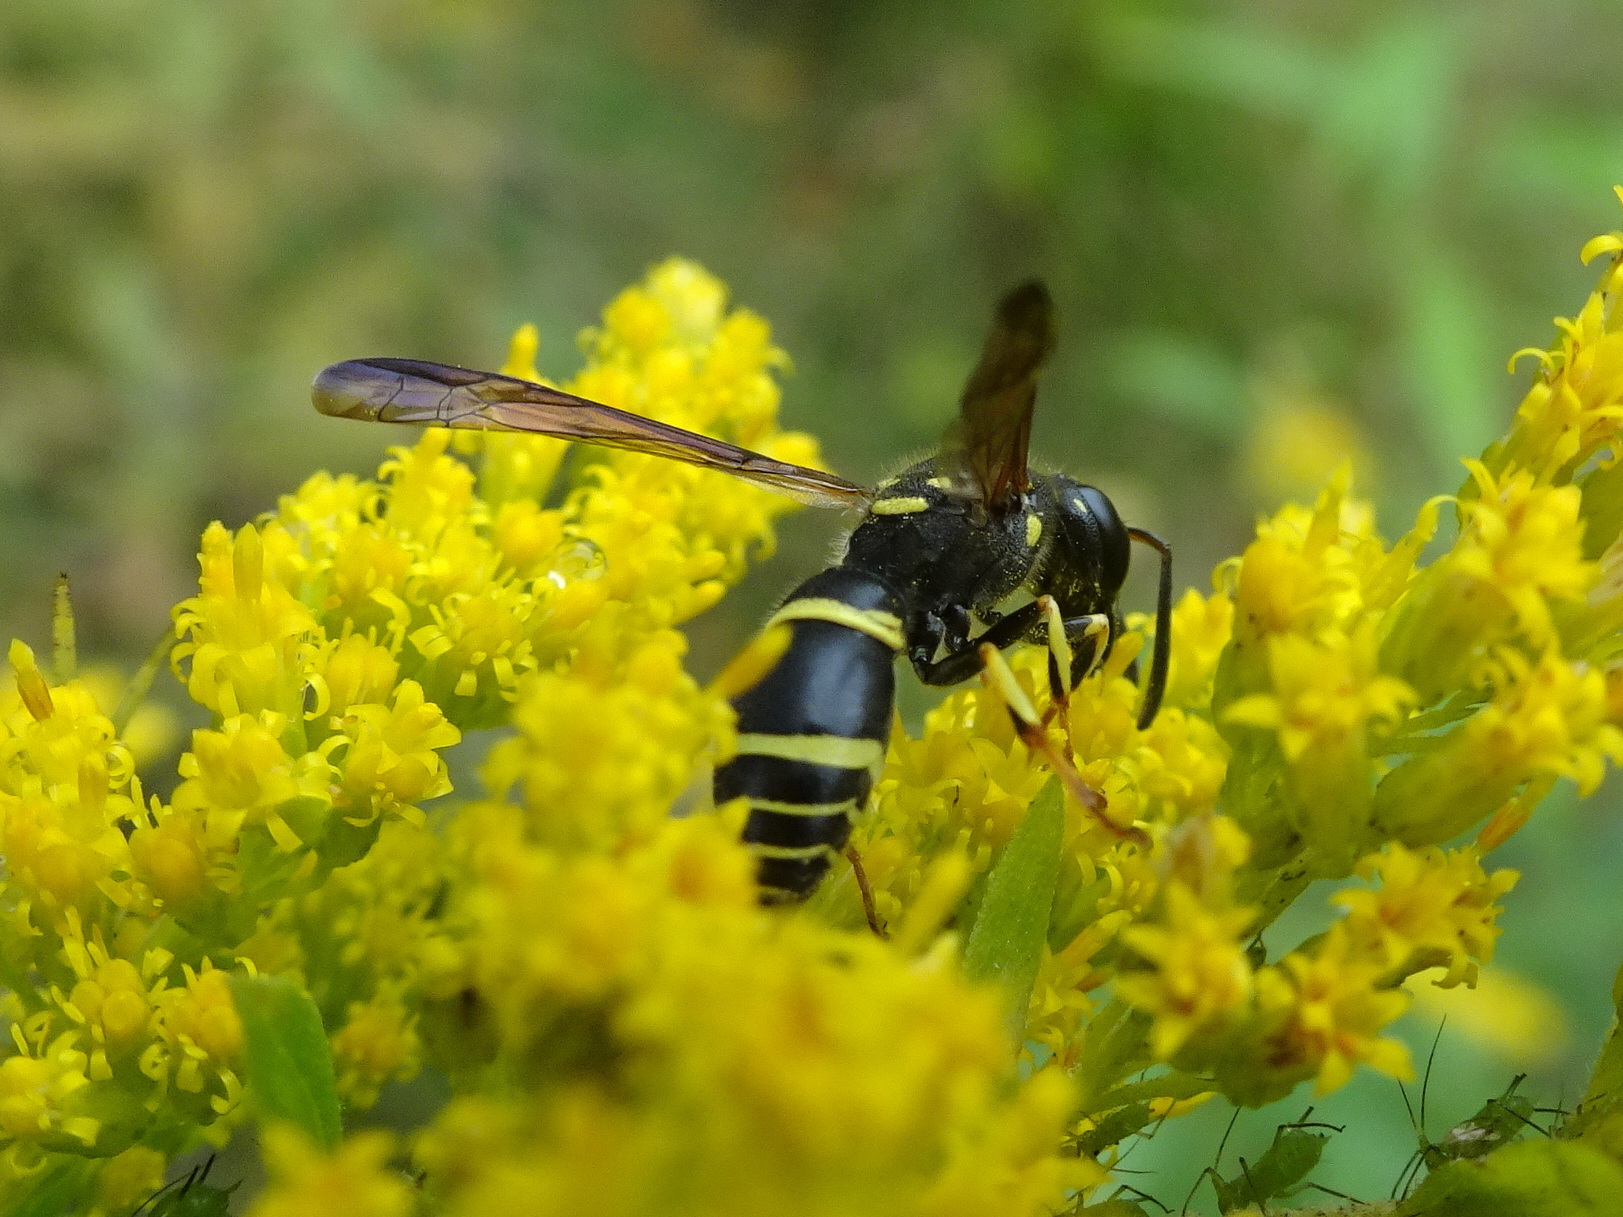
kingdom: Animalia
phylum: Arthropoda
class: Insecta
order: Hymenoptera
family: Vespidae
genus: Ancistrocerus
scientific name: Ancistrocerus adiabatus
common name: Bramble mason wasp
